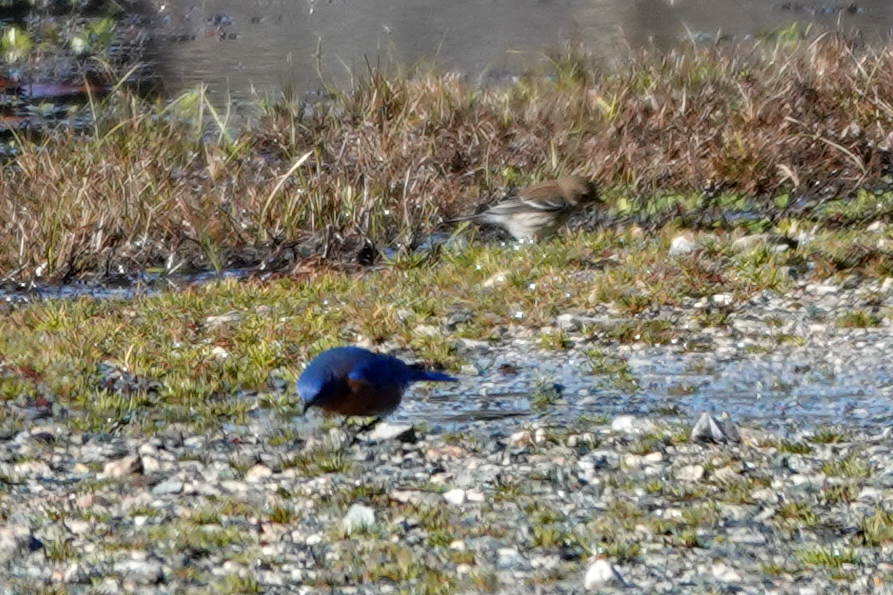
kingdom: Animalia
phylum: Chordata
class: Aves
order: Passeriformes
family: Turdidae
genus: Sialia
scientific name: Sialia sialis
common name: Eastern bluebird
